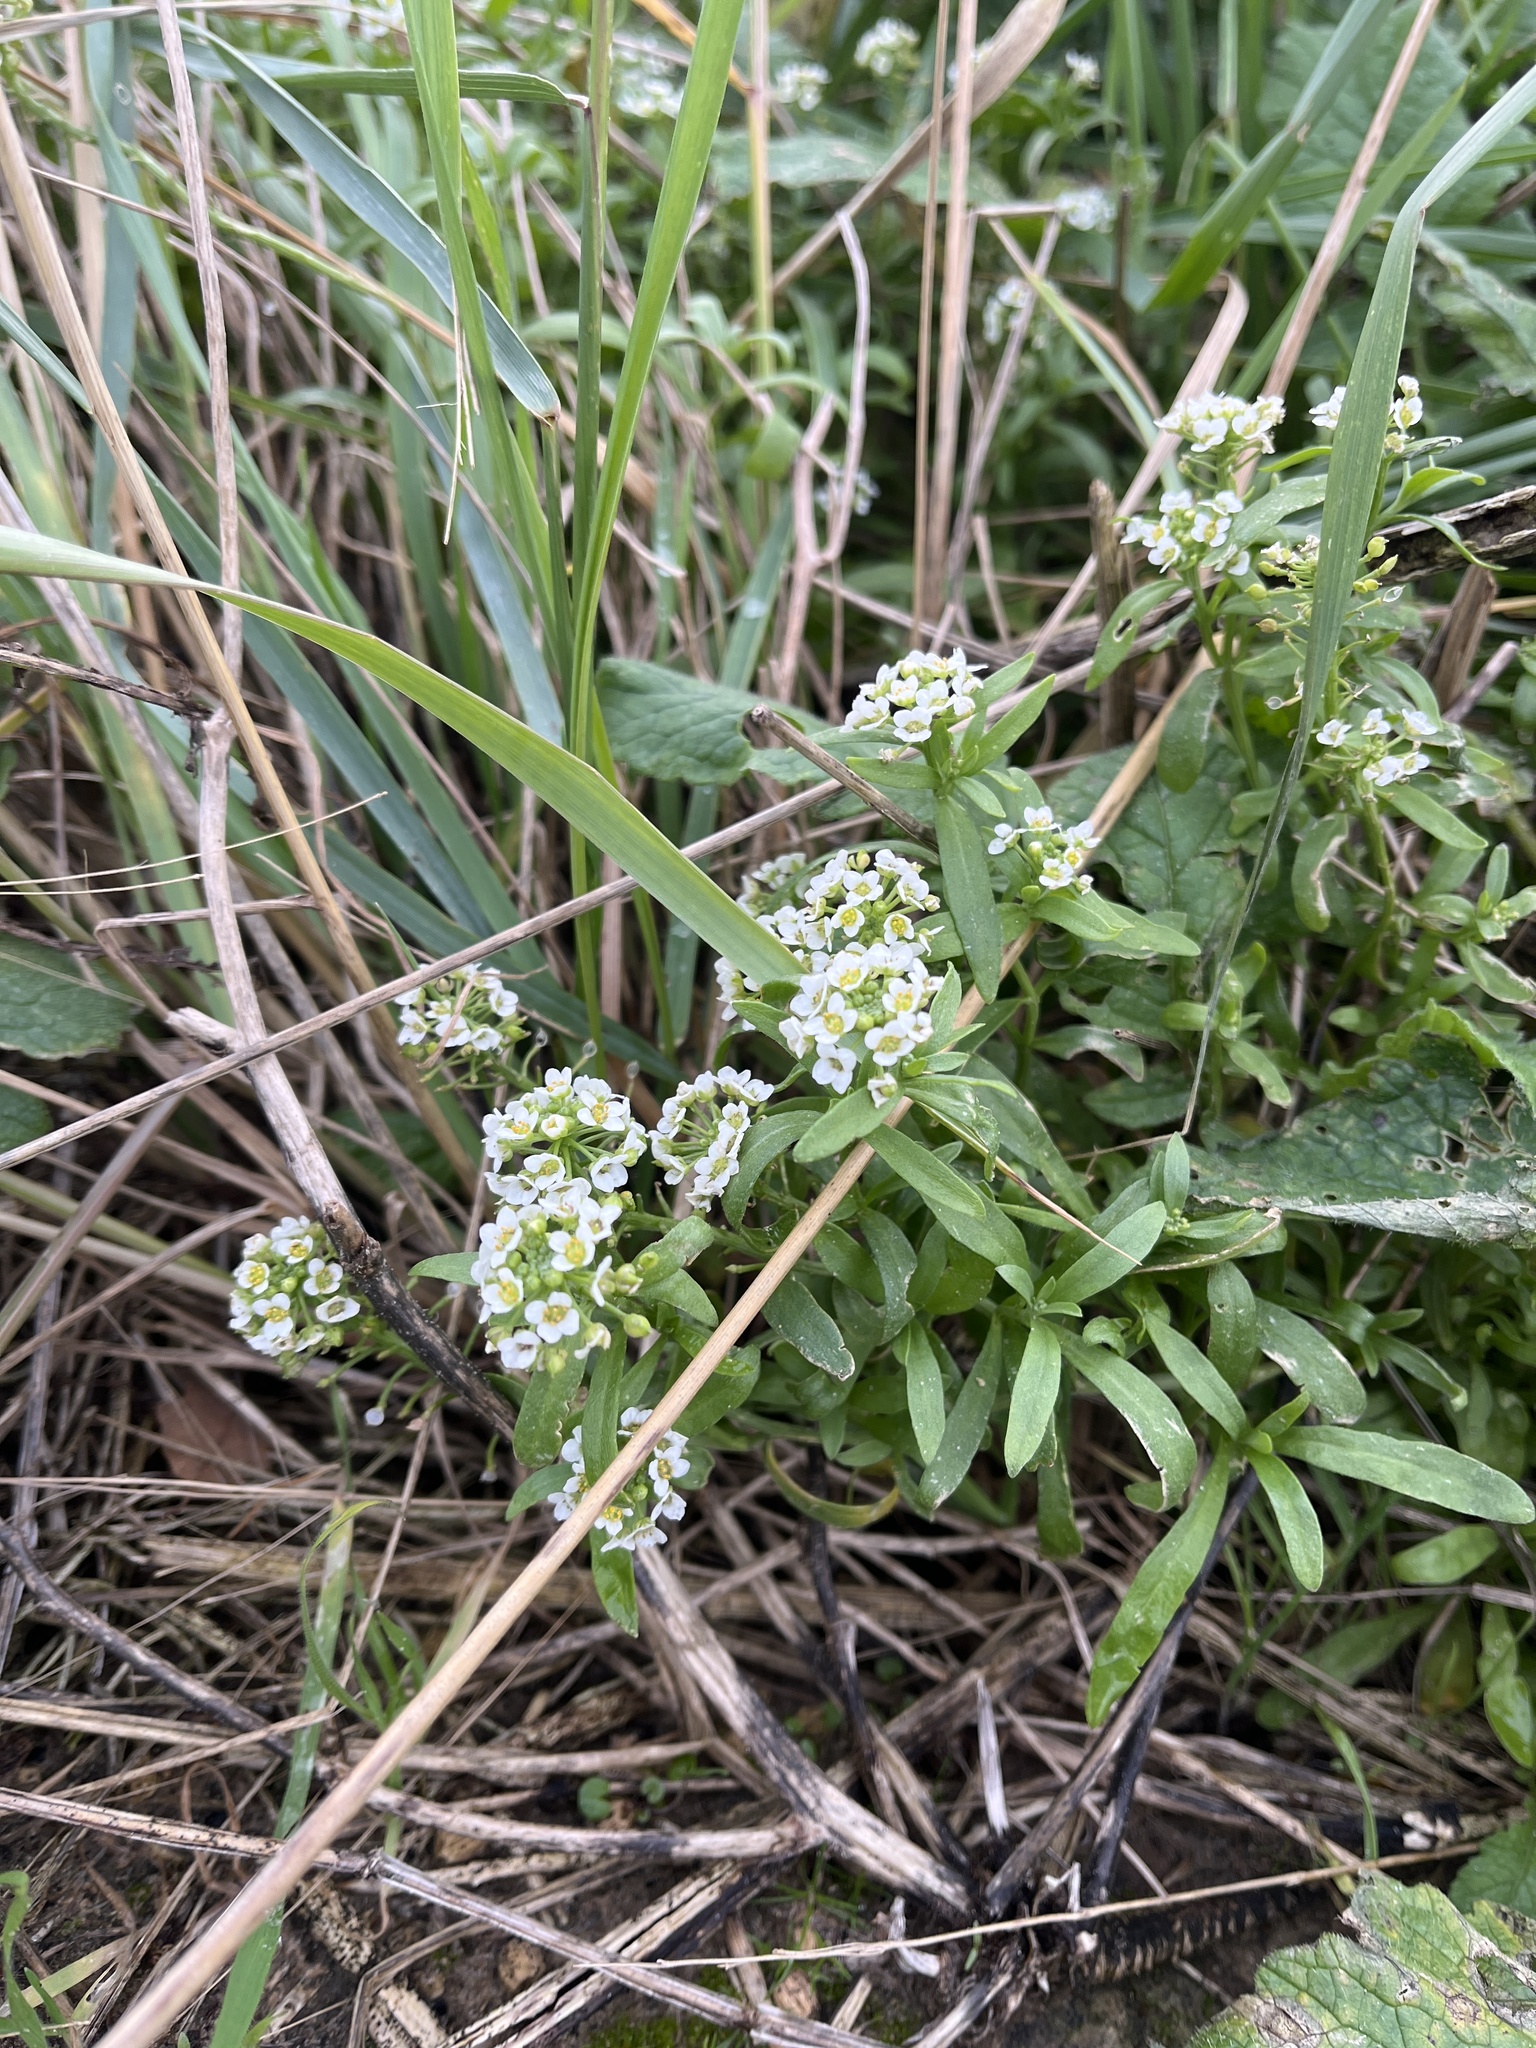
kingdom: Plantae
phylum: Tracheophyta
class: Magnoliopsida
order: Brassicales
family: Brassicaceae
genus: Lobularia
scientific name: Lobularia maritima
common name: Sweet alison
